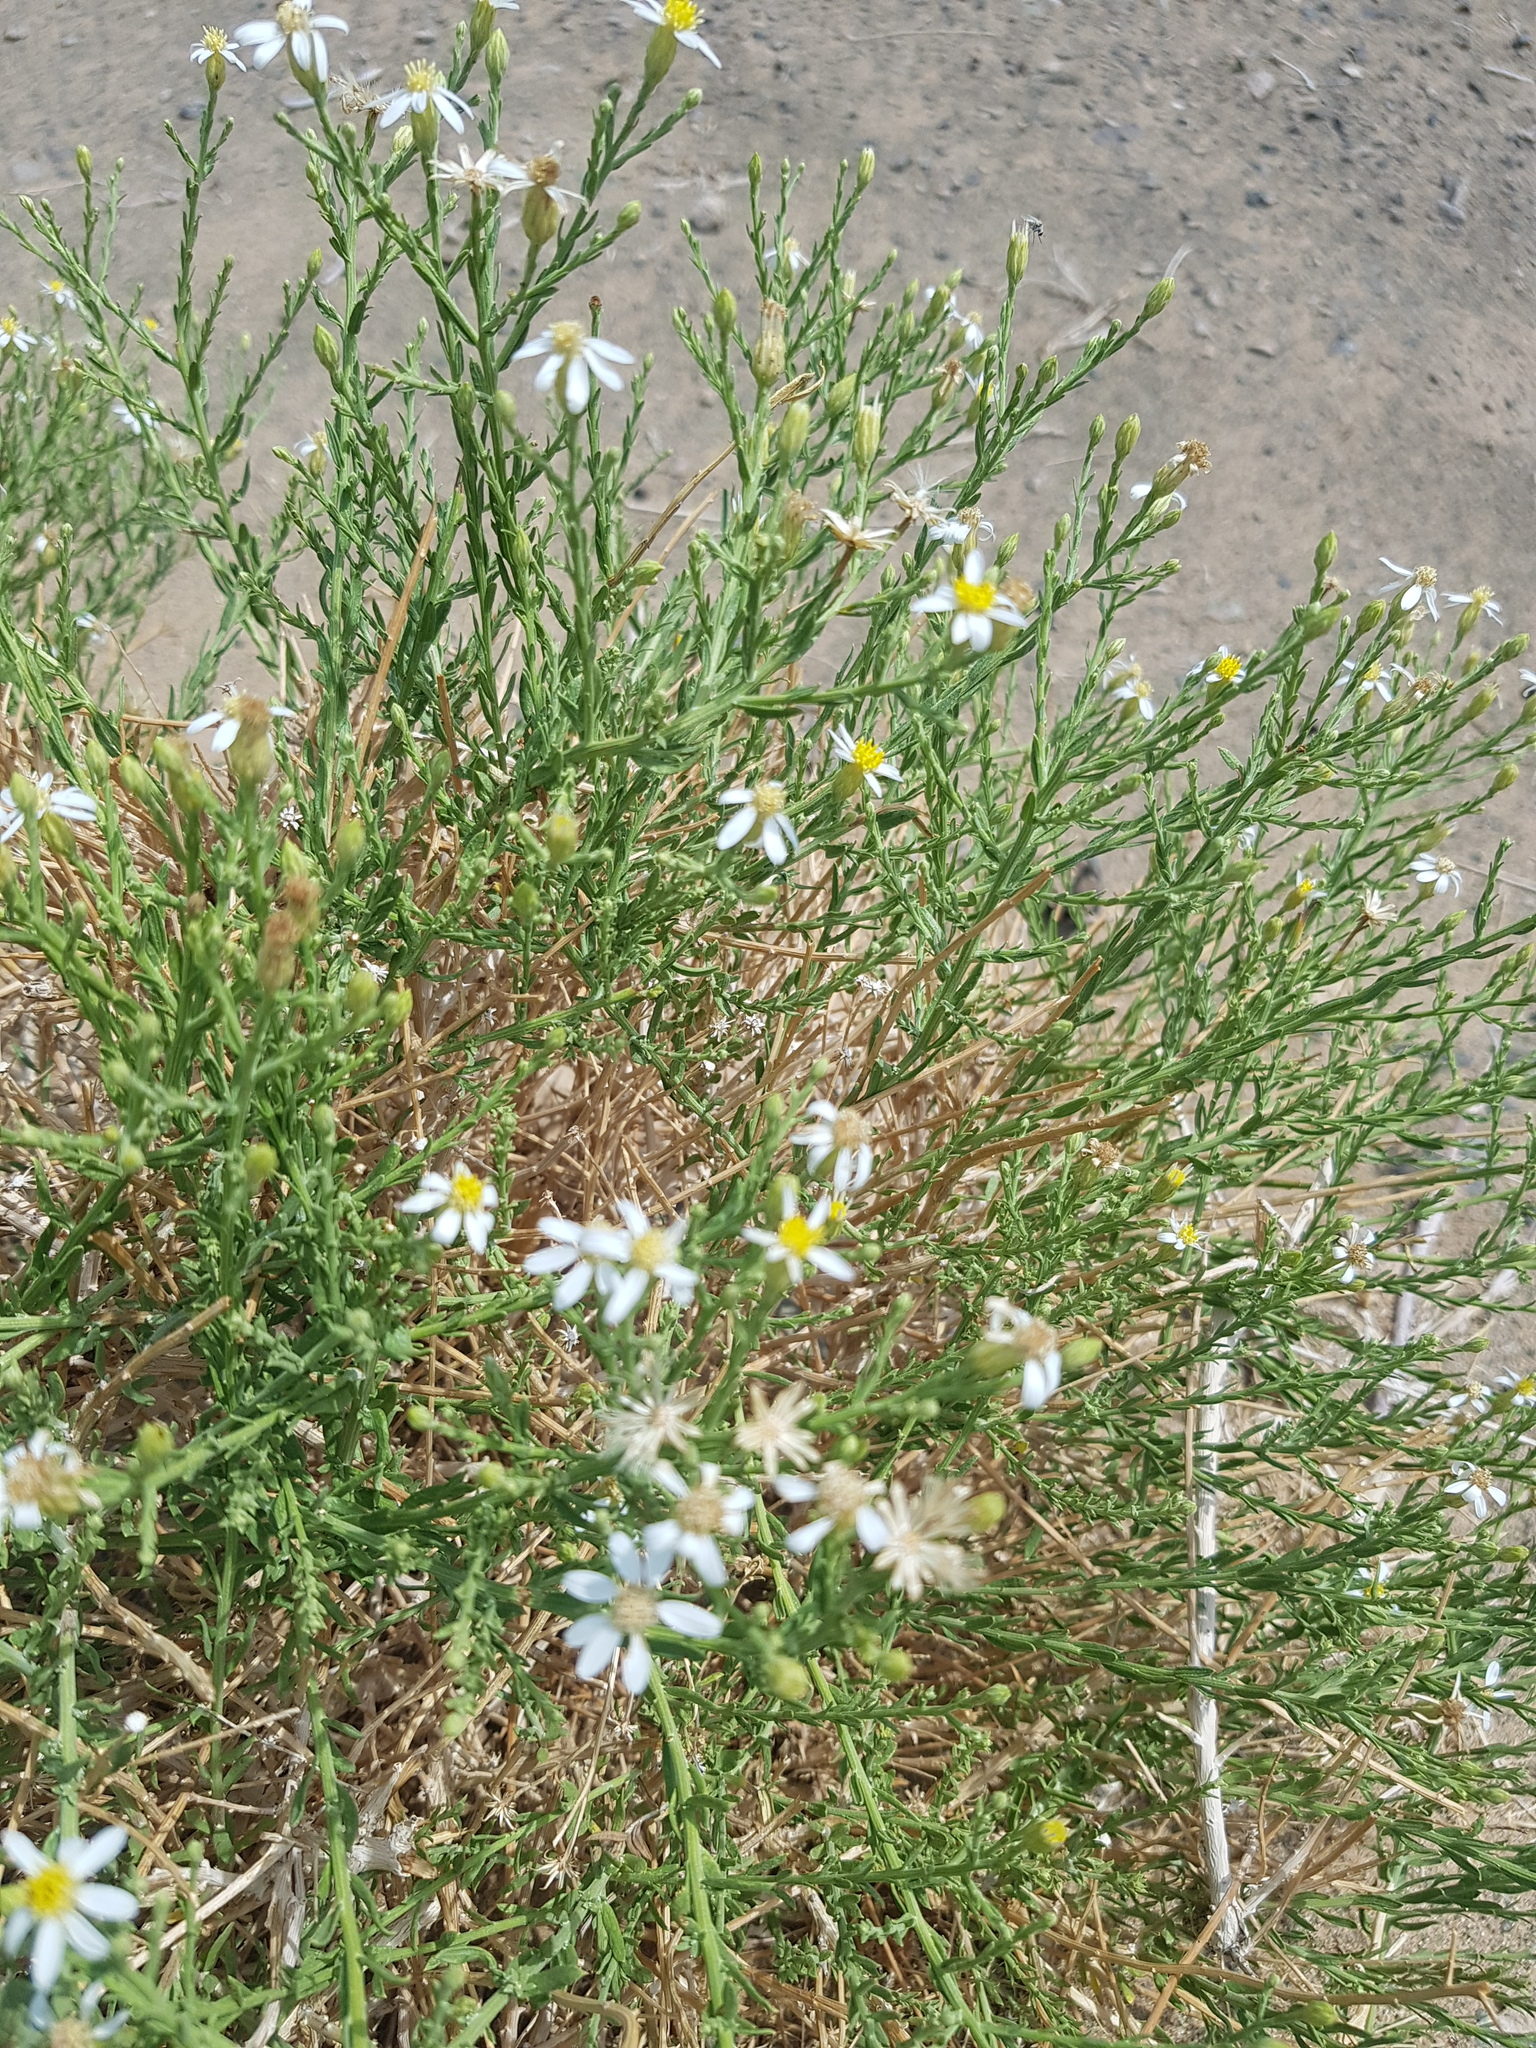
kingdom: Plantae
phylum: Tracheophyta
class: Magnoliopsida
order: Asterales
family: Asteraceae
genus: Asterothamnus
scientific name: Asterothamnus centraliasiaticus
